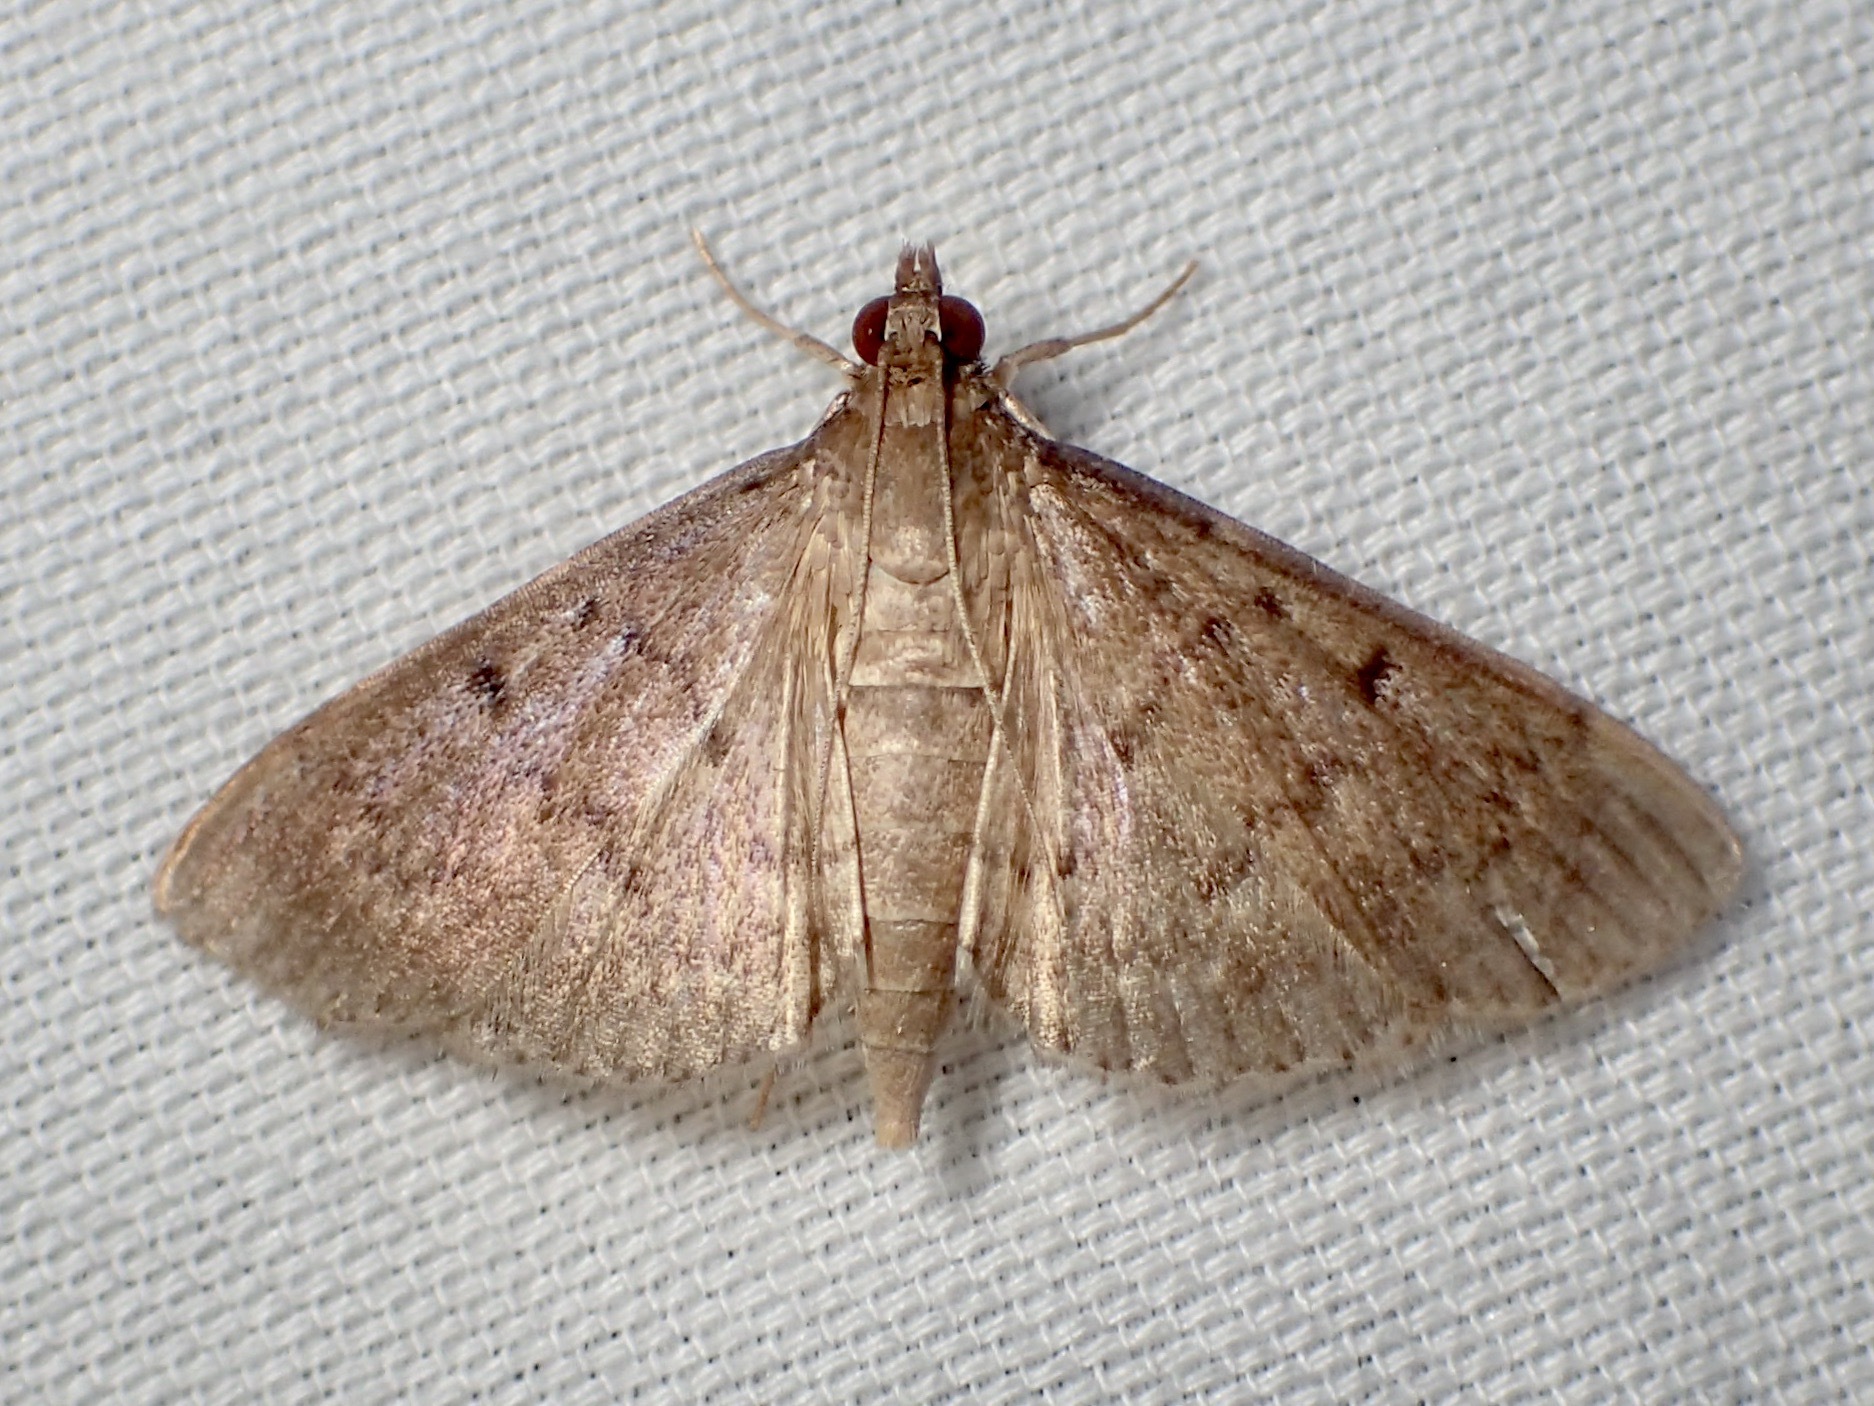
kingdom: Animalia
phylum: Arthropoda
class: Insecta
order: Lepidoptera
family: Crambidae
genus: Herpetogramma
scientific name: Herpetogramma licarsisalis
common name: Grass webworm
